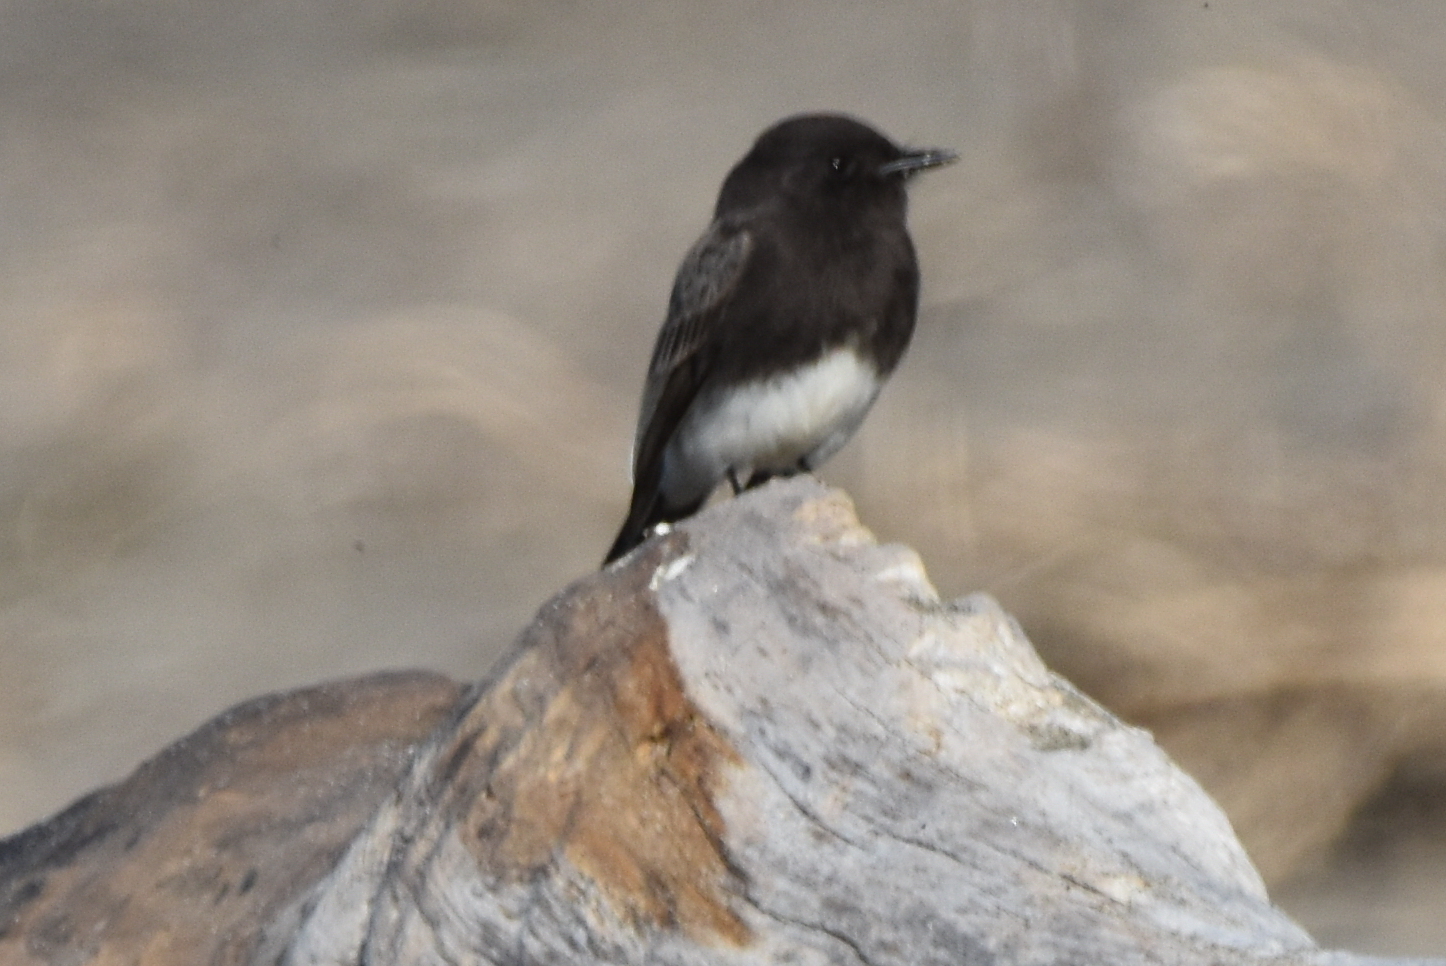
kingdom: Animalia
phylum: Chordata
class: Aves
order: Passeriformes
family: Tyrannidae
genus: Sayornis
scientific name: Sayornis nigricans
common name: Black phoebe
